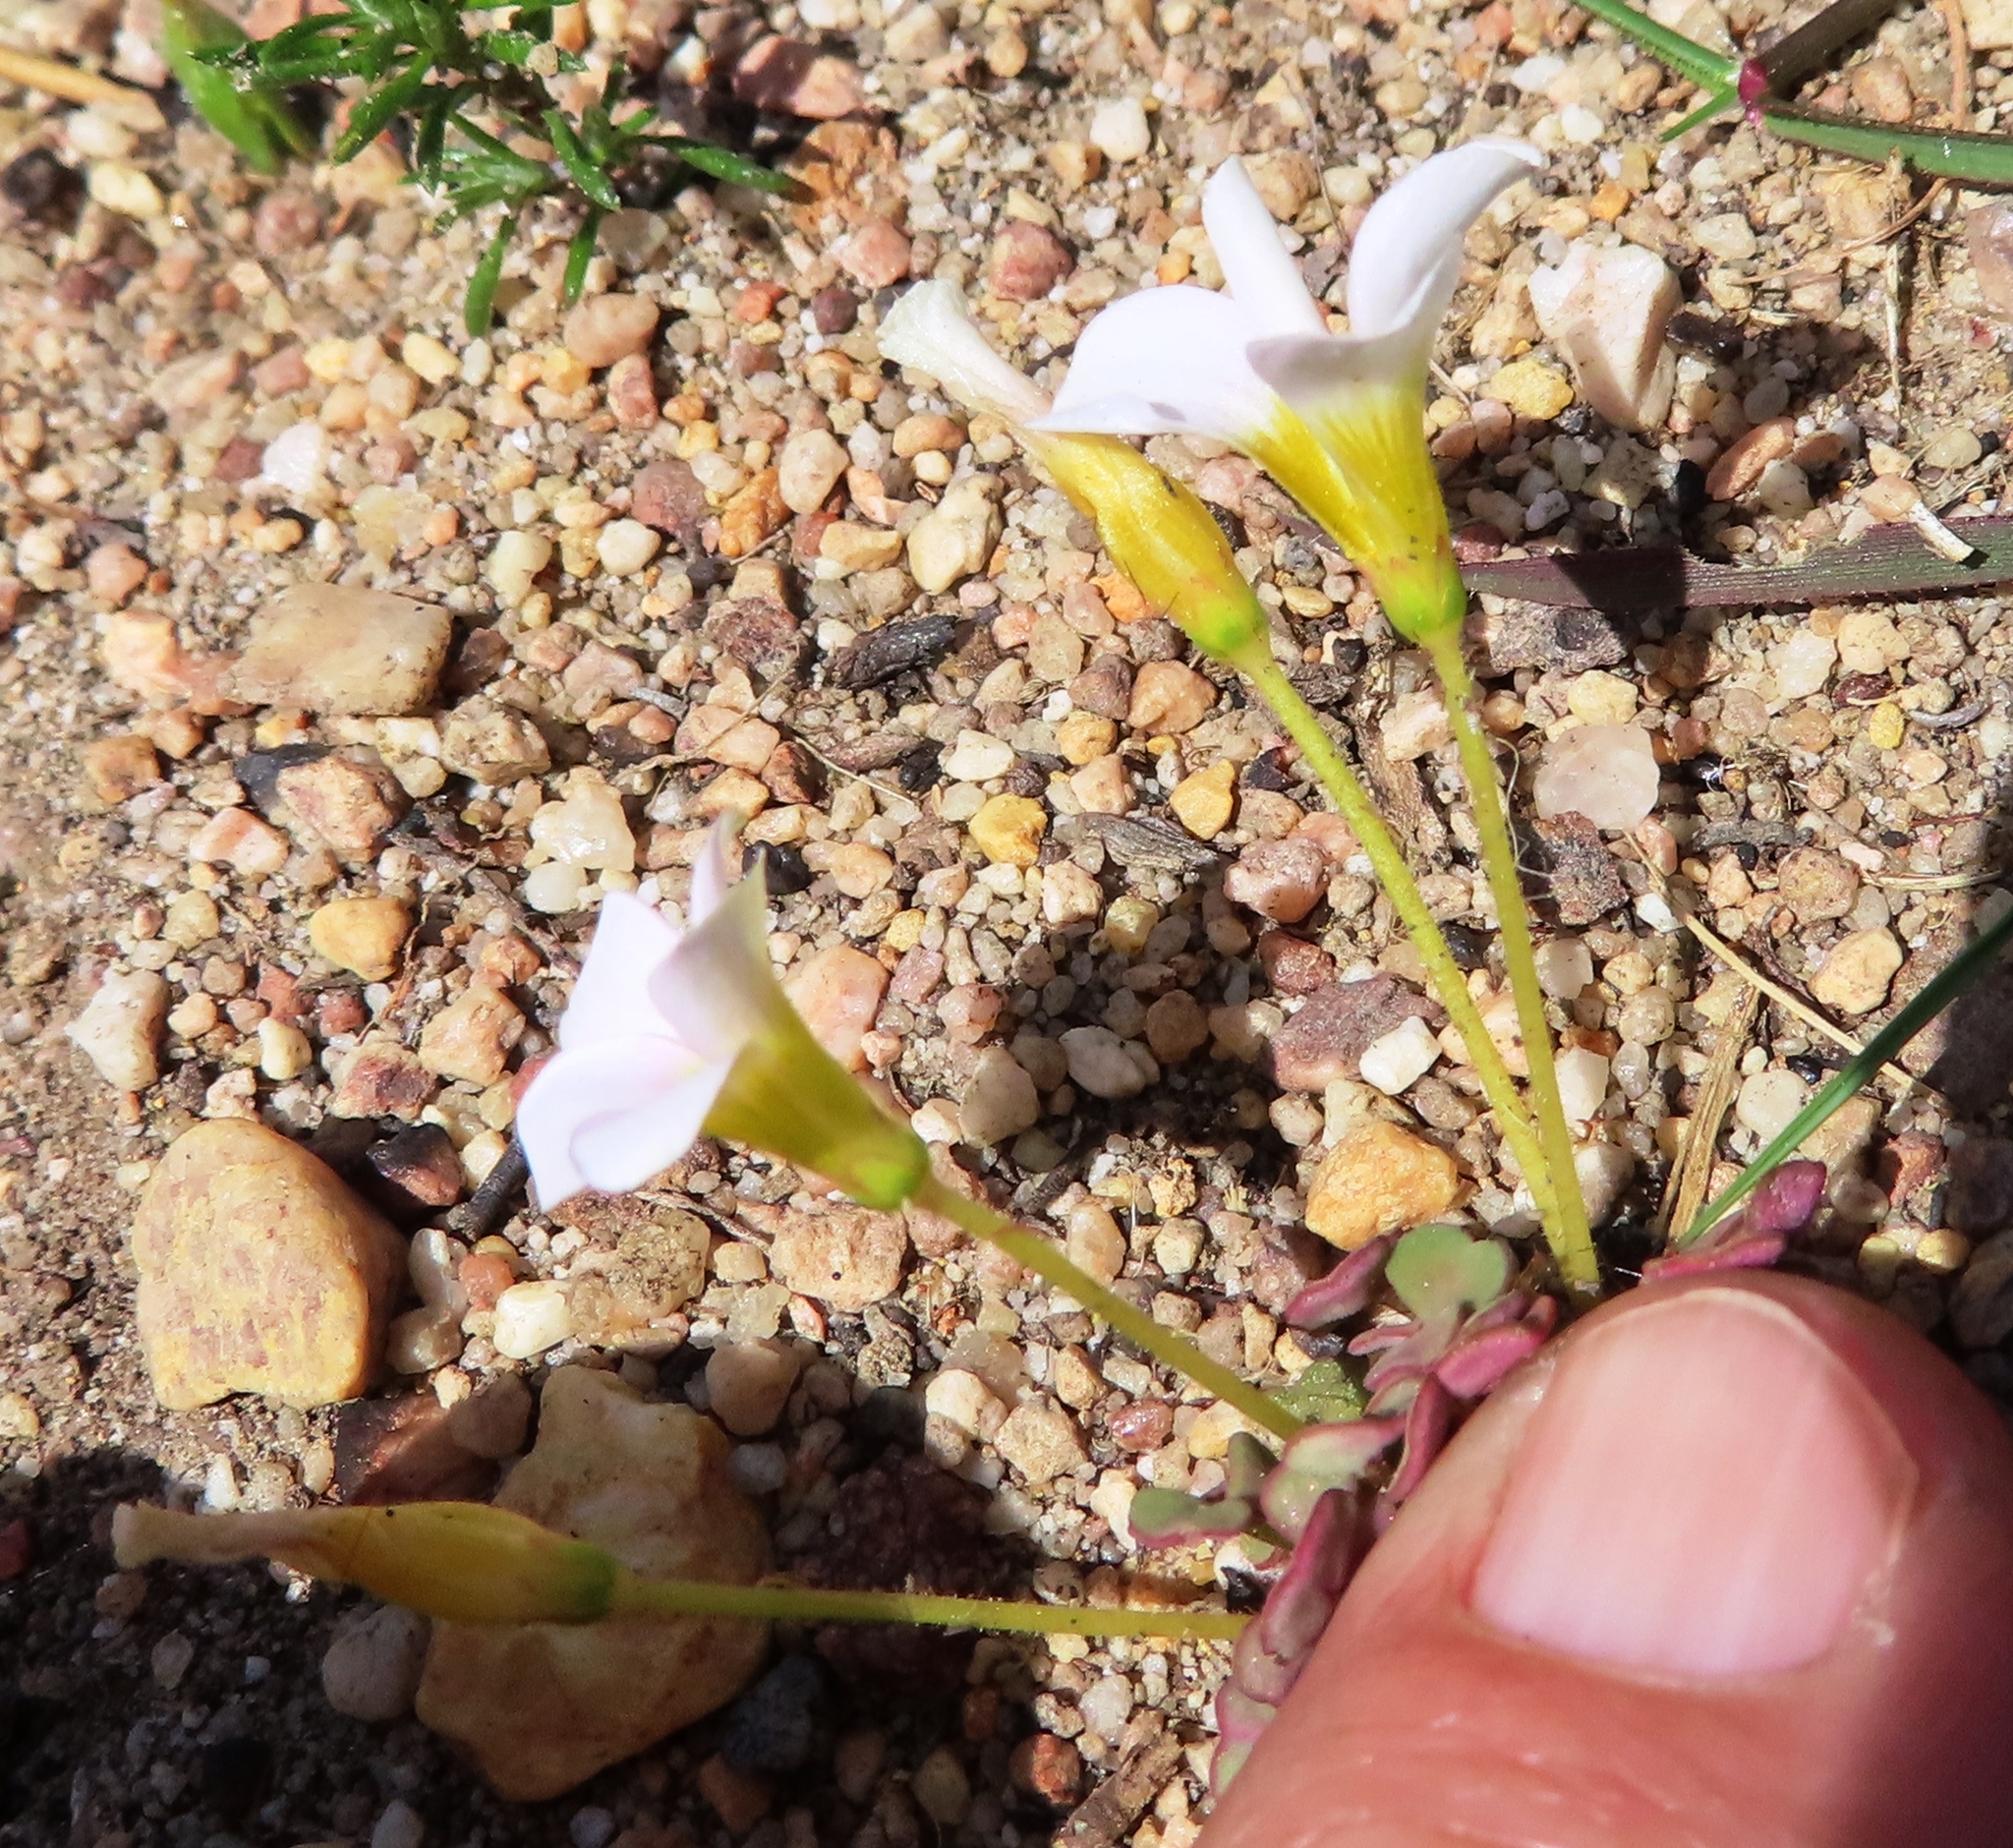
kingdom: Plantae
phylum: Tracheophyta
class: Magnoliopsida
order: Oxalidales
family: Oxalidaceae
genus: Oxalis
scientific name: Oxalis punctata
